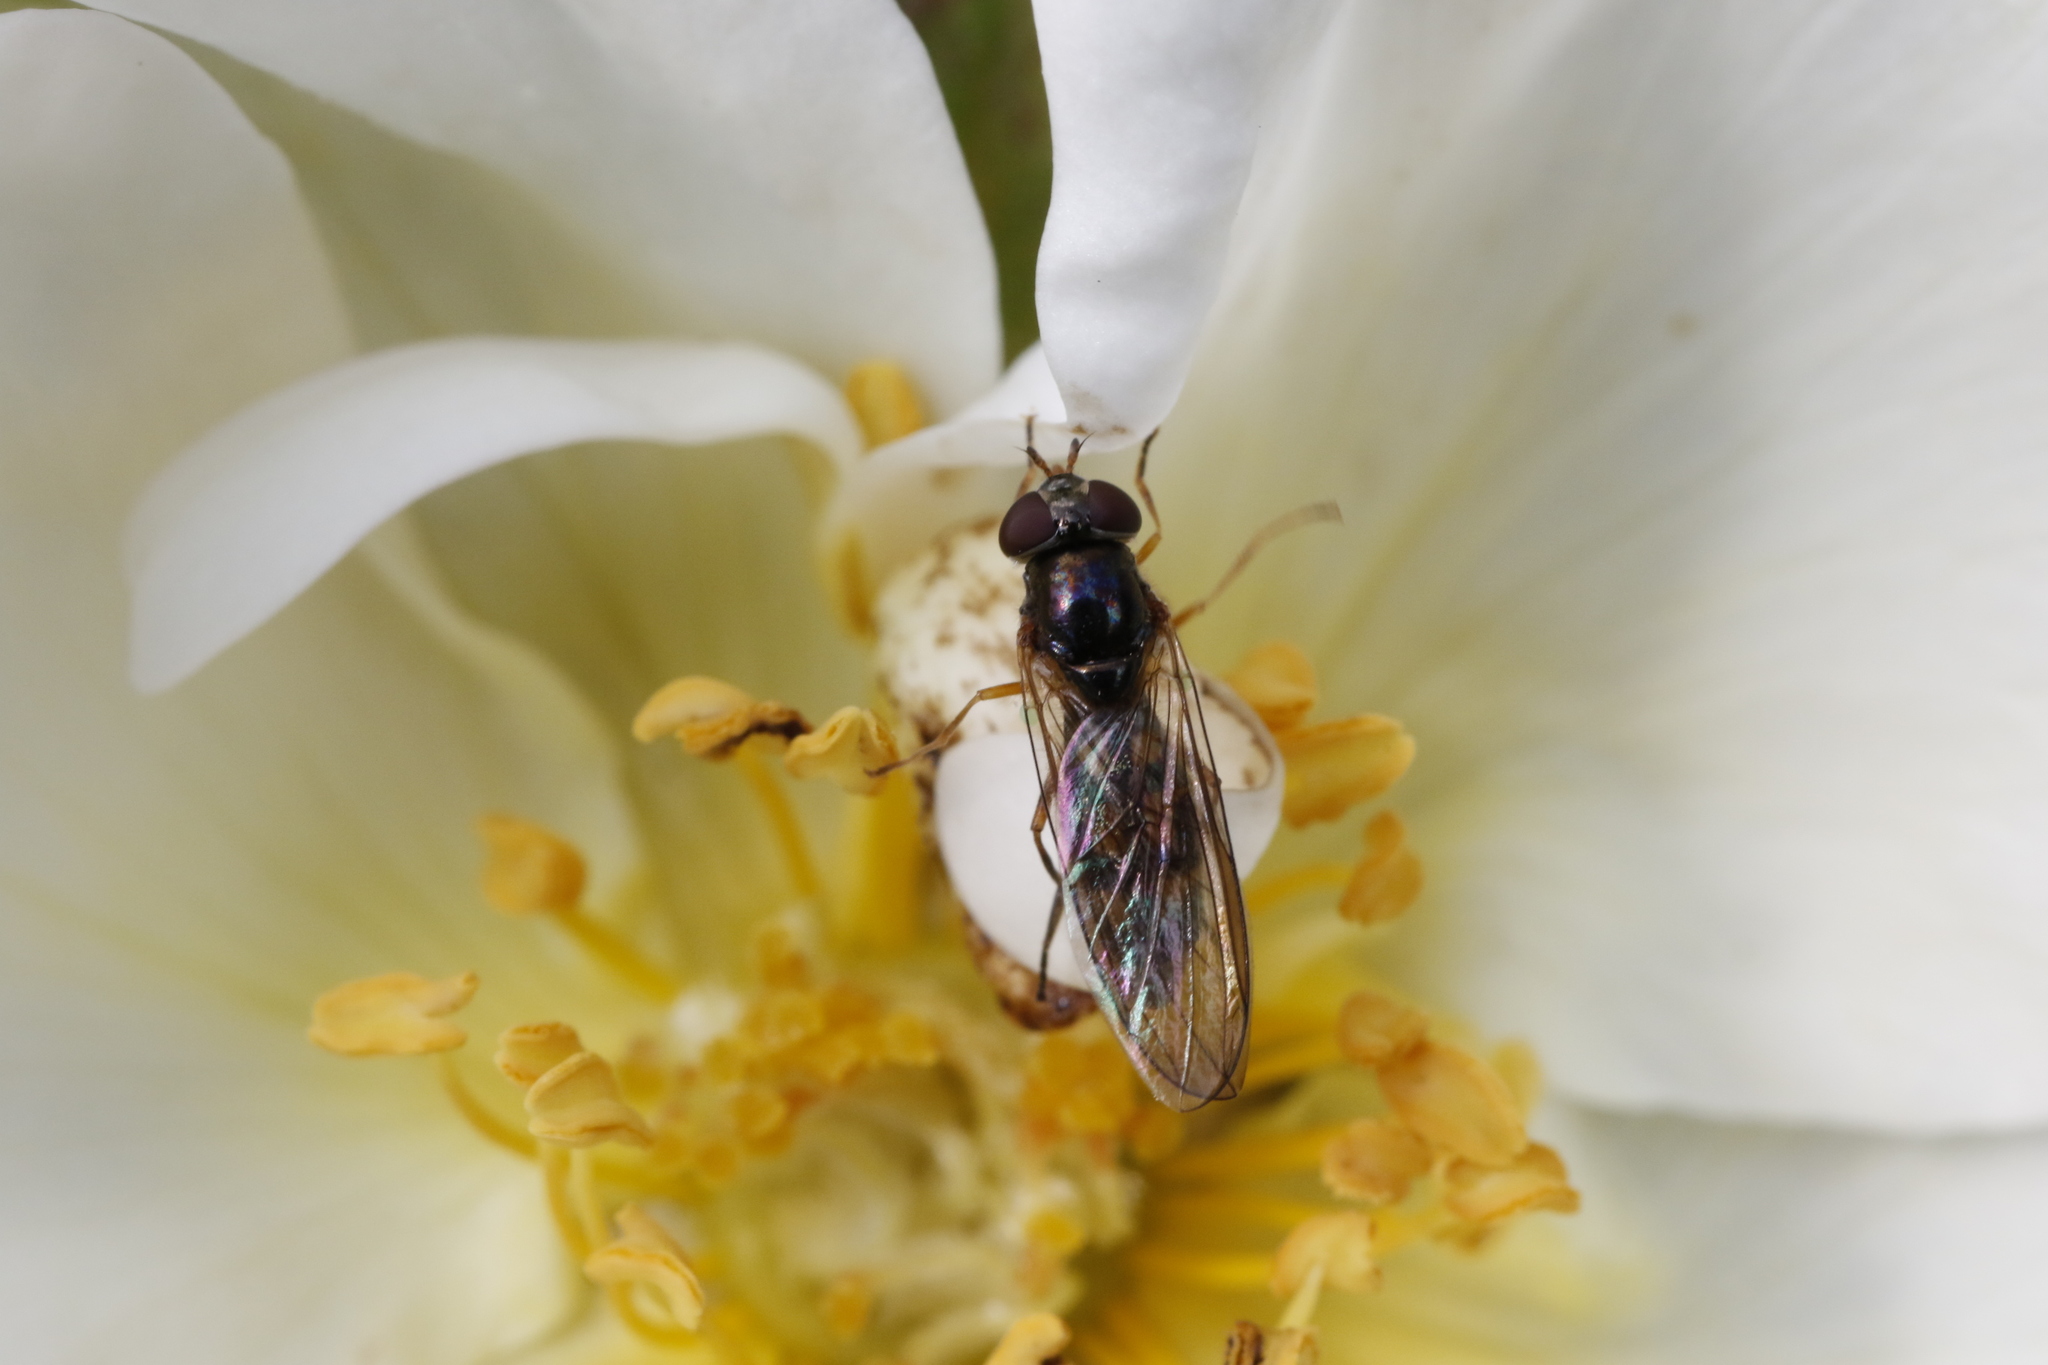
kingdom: Animalia
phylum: Arthropoda
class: Insecta
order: Diptera
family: Syrphidae
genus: Melanostoma
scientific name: Melanostoma scalare
